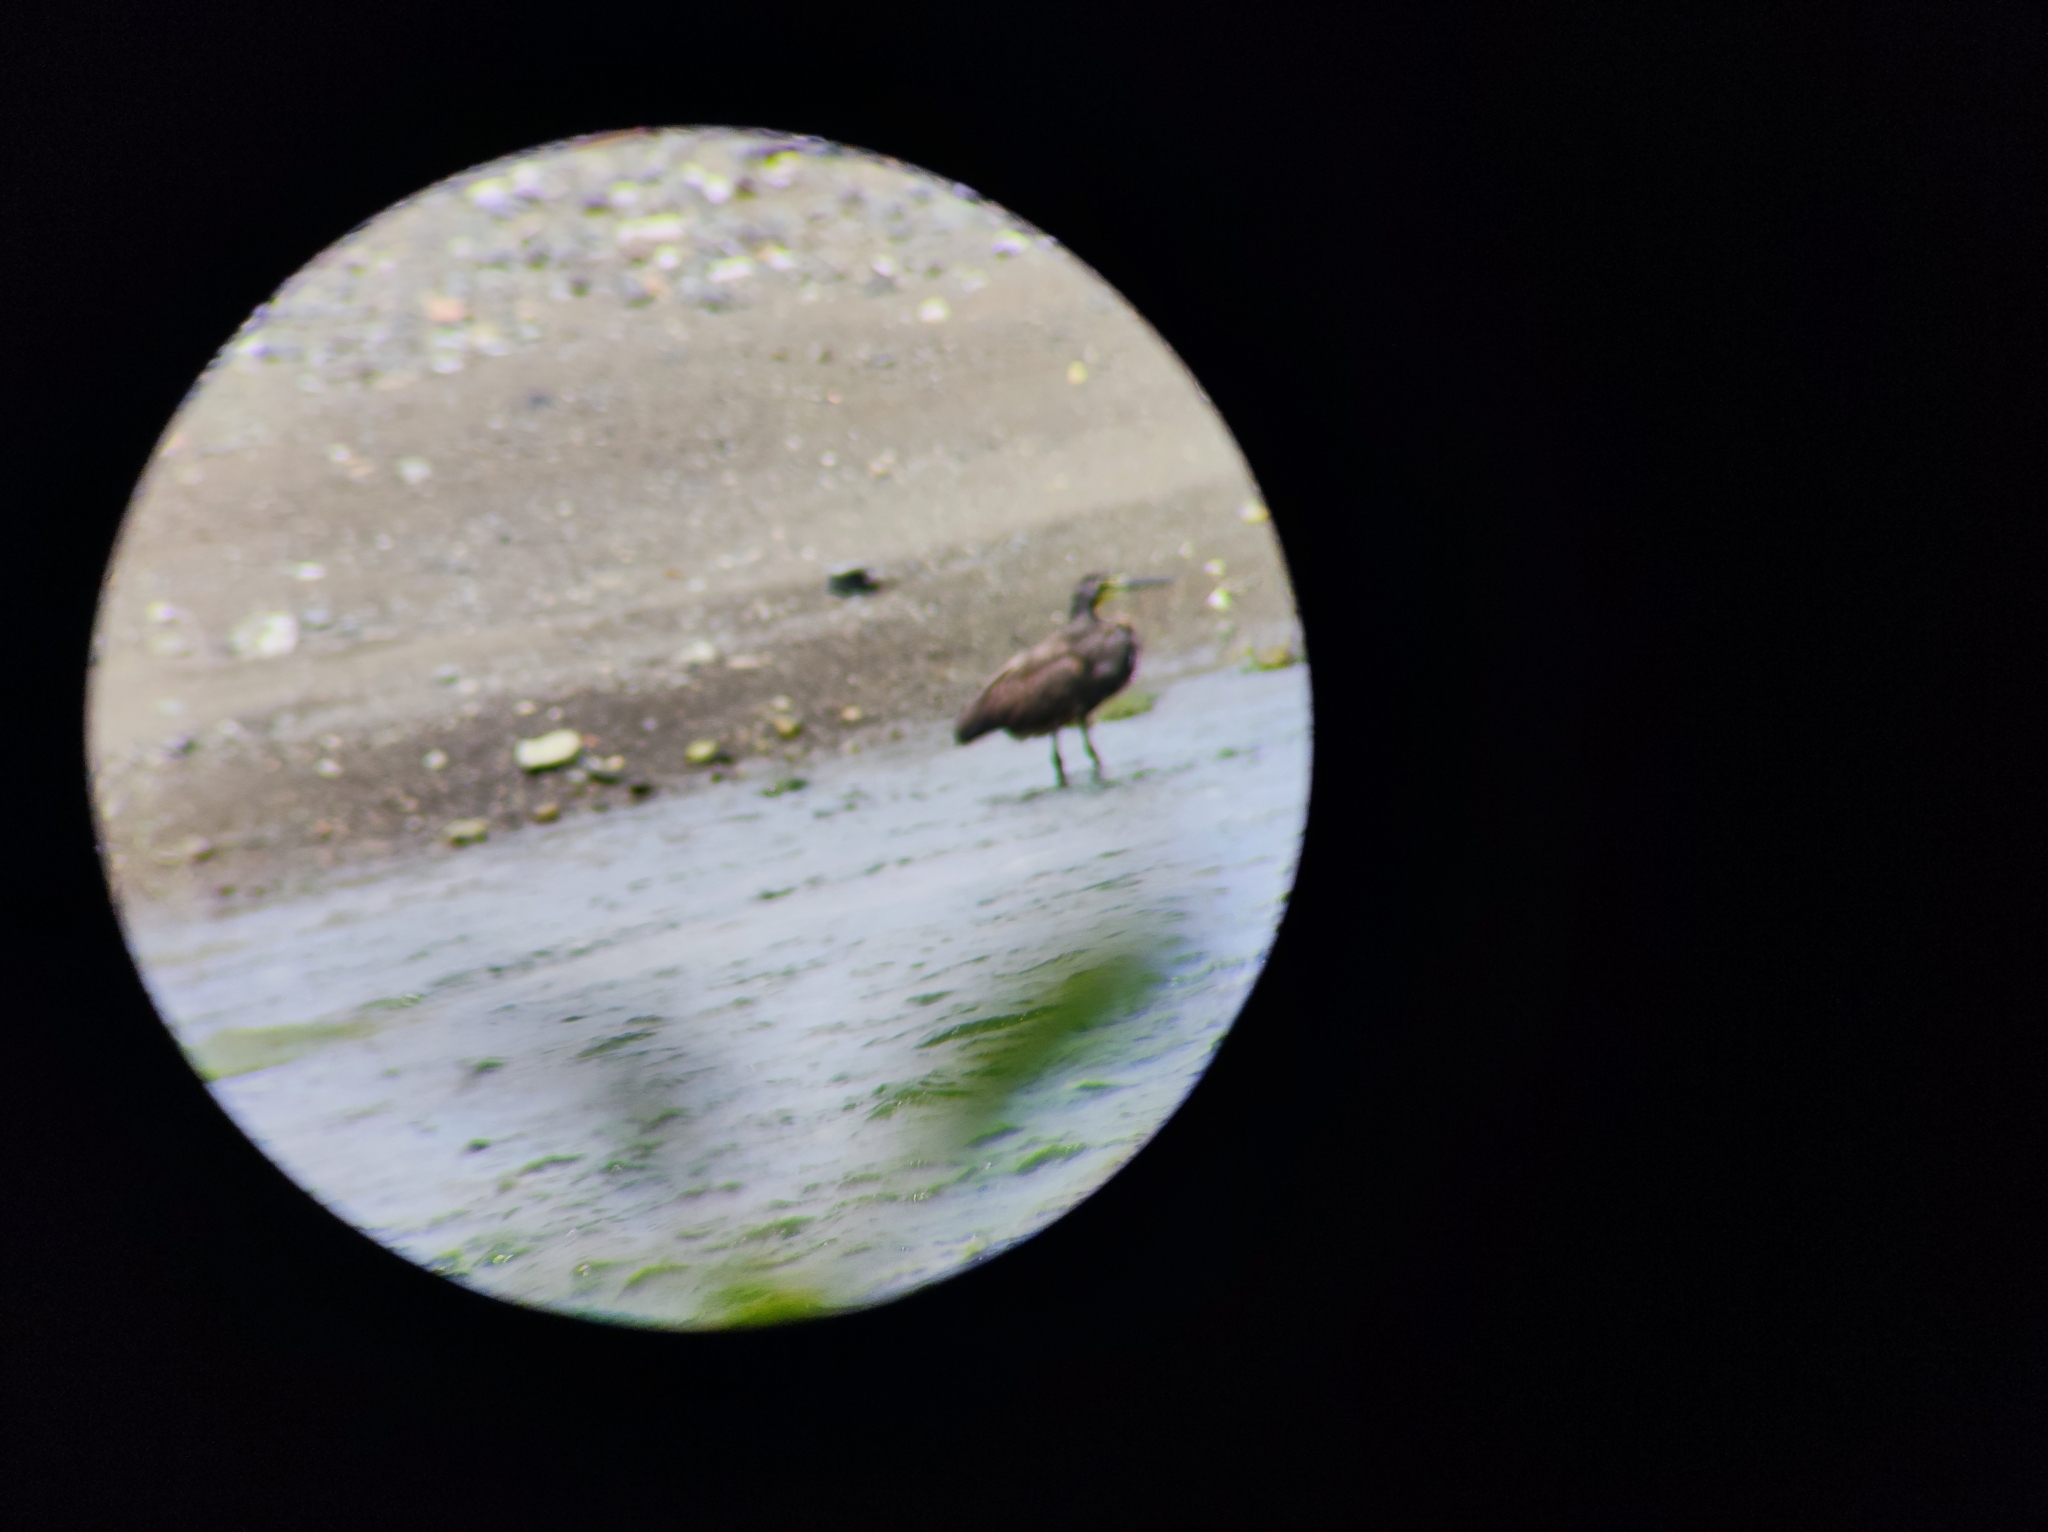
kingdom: Animalia
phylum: Chordata
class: Aves
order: Pelecaniformes
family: Ardeidae
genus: Tigrisoma
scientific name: Tigrisoma mexicanum
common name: Bare-throated tiger-heron
